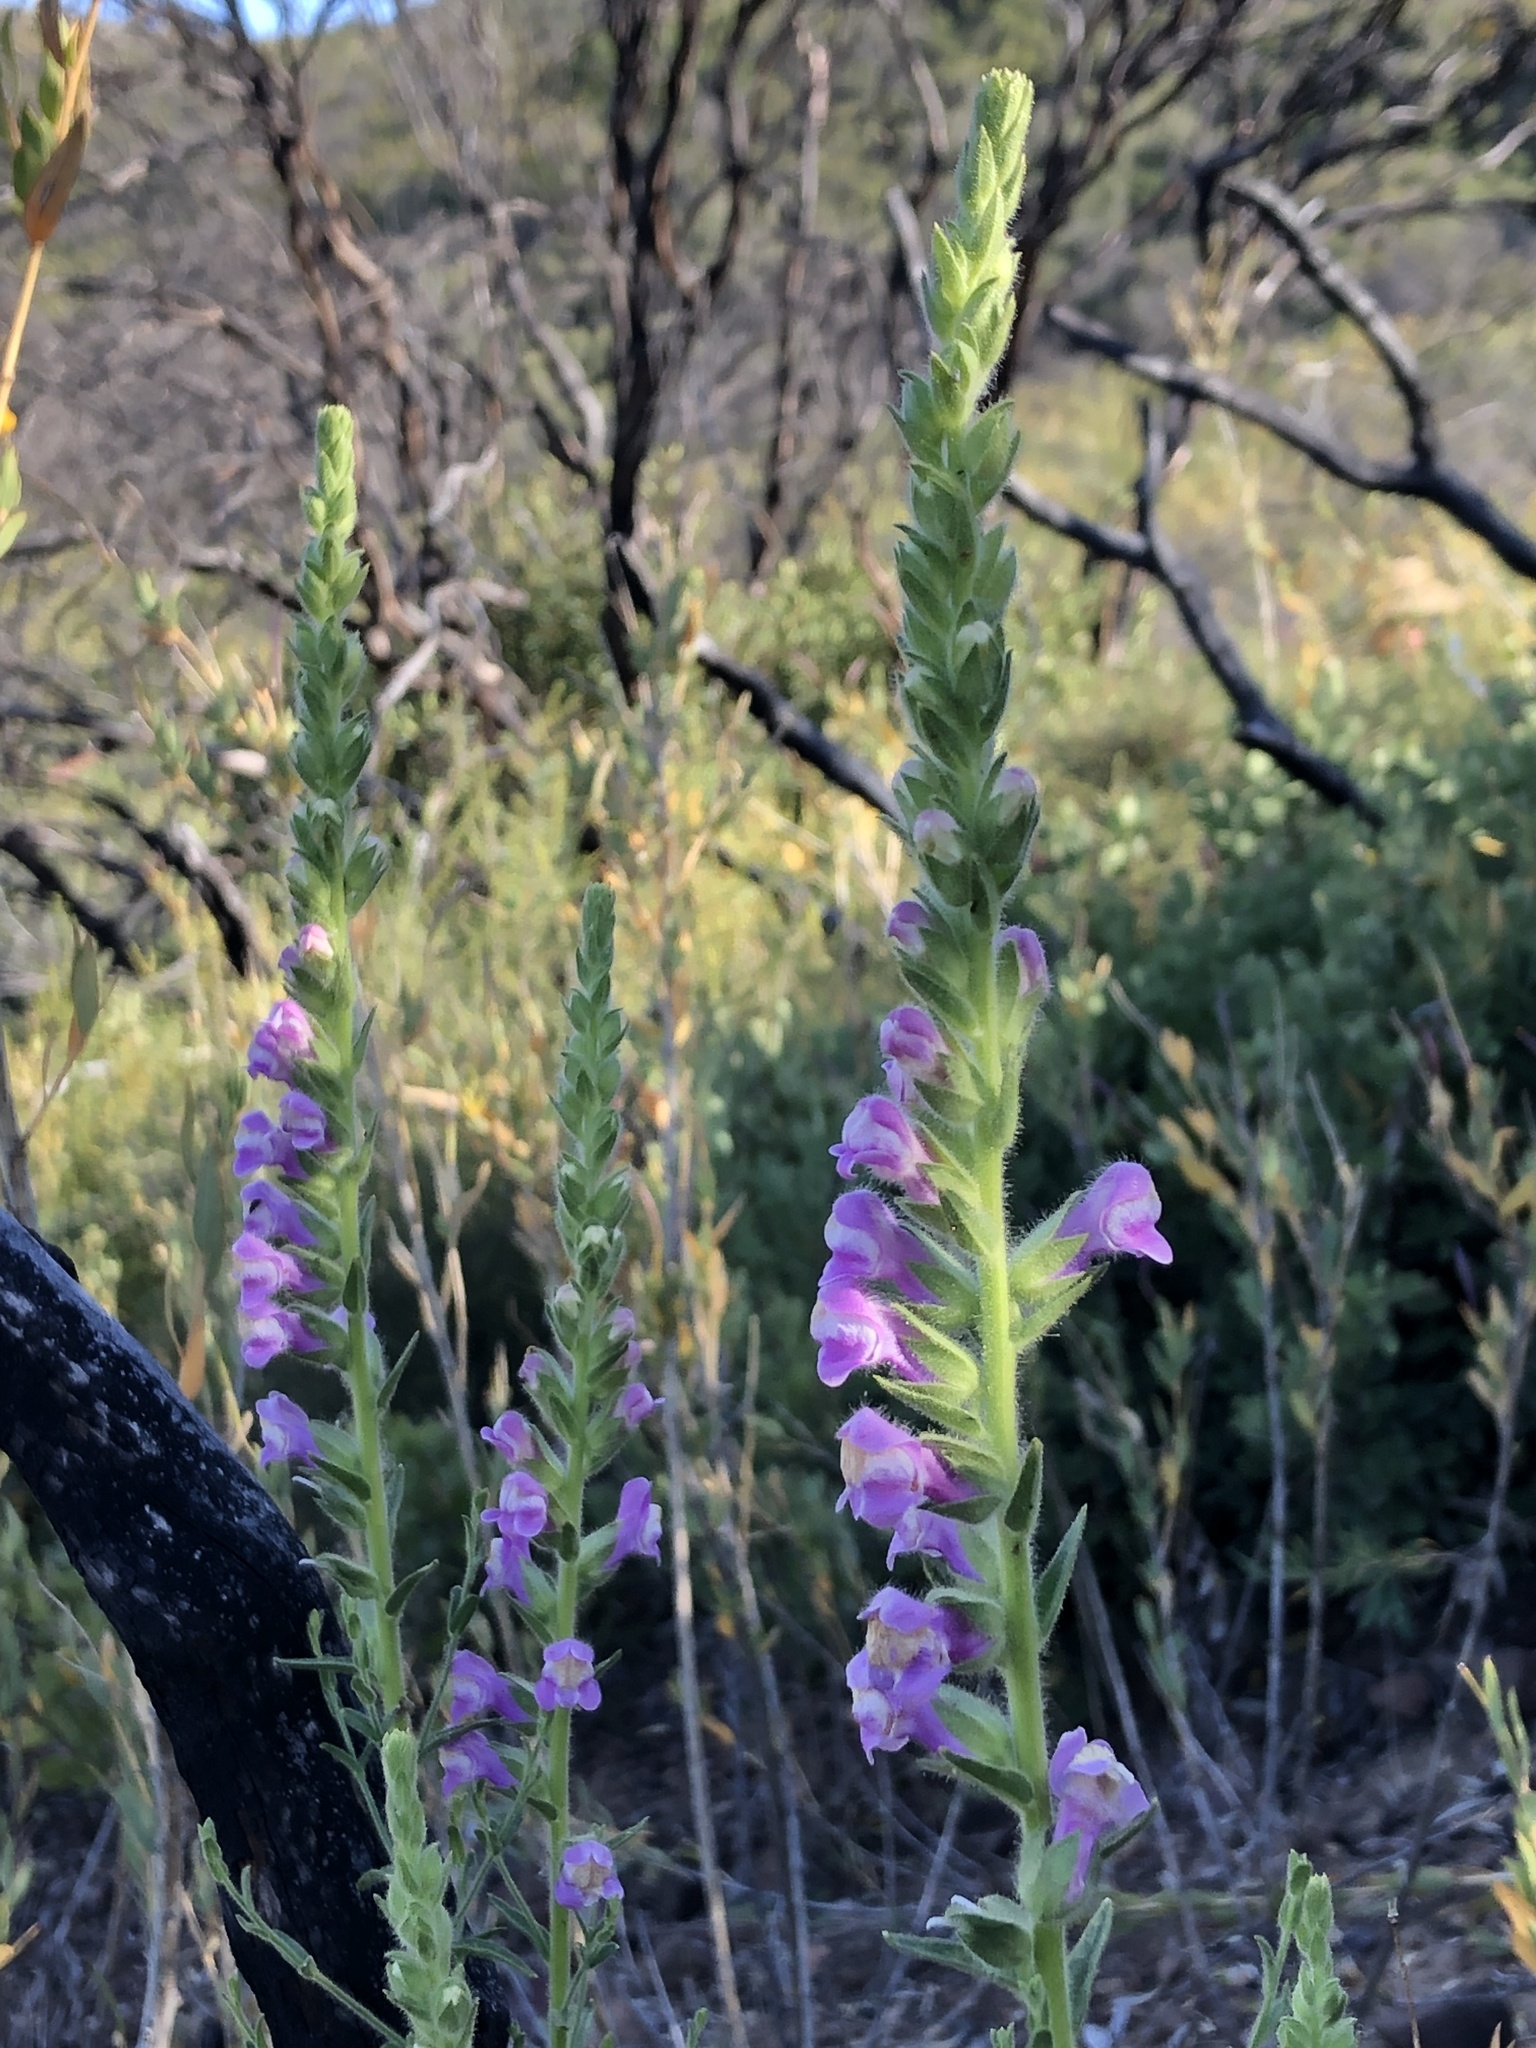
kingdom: Plantae
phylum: Tracheophyta
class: Magnoliopsida
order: Lamiales
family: Plantaginaceae
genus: Sairocarpus
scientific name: Sairocarpus multiflorus
